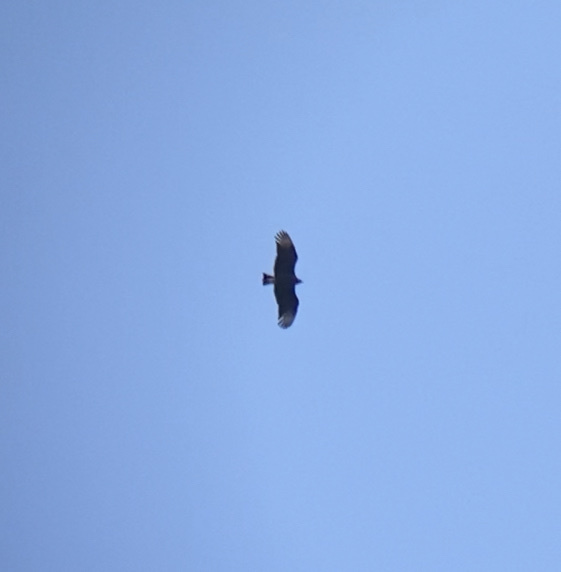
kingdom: Animalia
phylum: Chordata
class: Aves
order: Accipitriformes
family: Cathartidae
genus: Coragyps
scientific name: Coragyps atratus
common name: Black vulture
